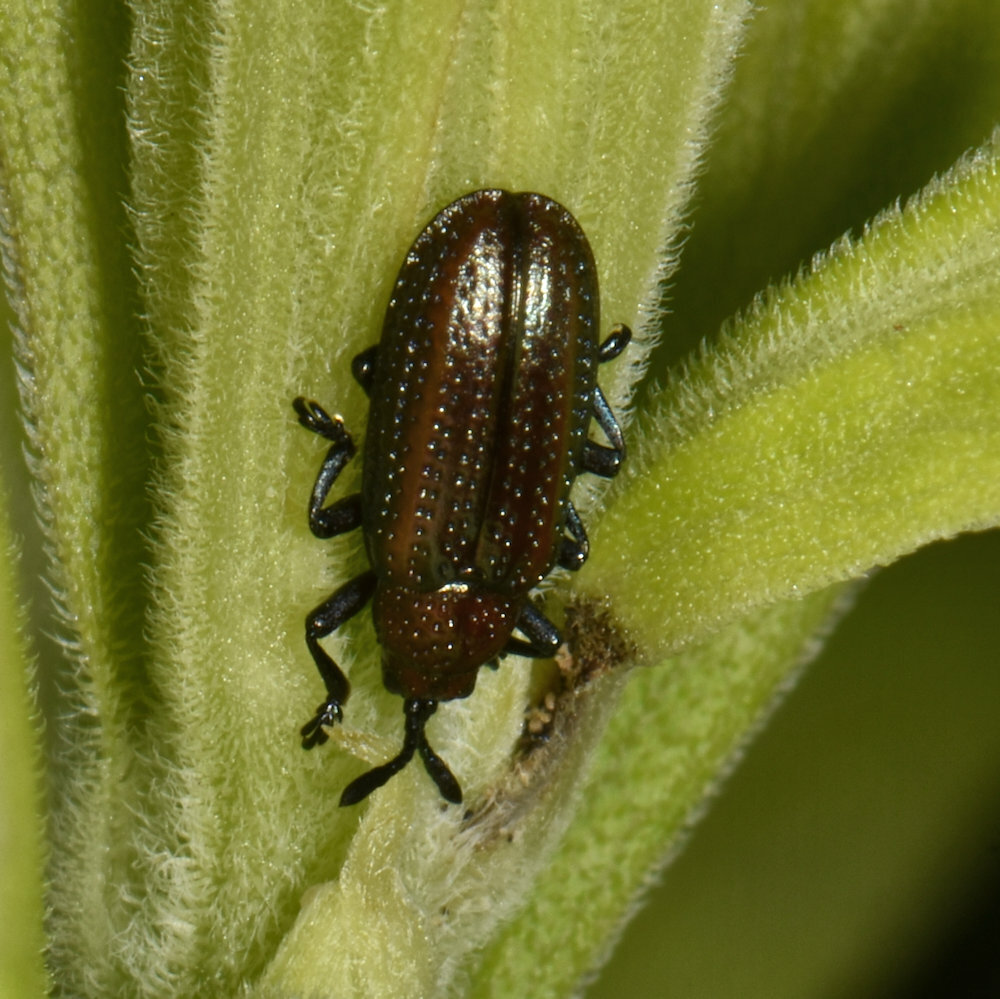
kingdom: Animalia
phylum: Arthropoda
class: Insecta
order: Coleoptera
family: Chrysomelidae
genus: Microrhopala
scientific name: Microrhopala vittata
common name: Goldenrod leaf miner beetle
